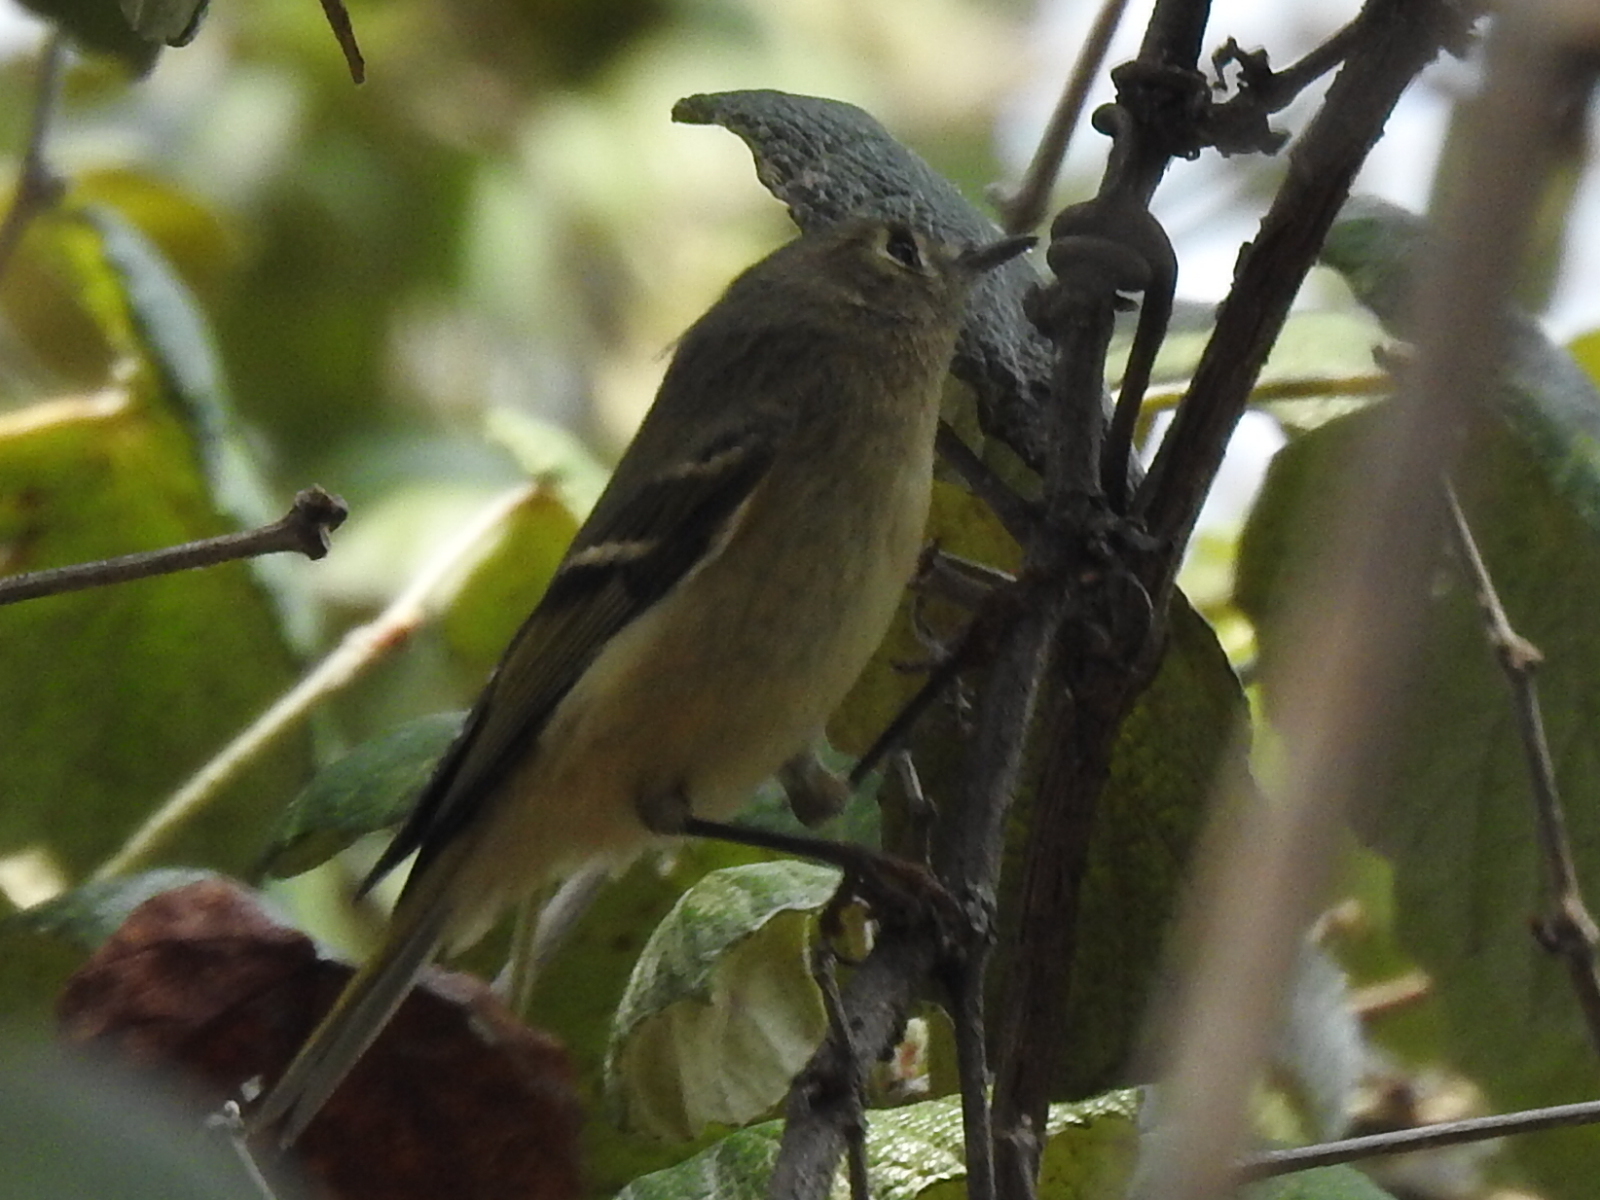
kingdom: Animalia
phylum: Chordata
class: Aves
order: Passeriformes
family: Regulidae
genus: Regulus
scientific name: Regulus calendula
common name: Ruby-crowned kinglet
